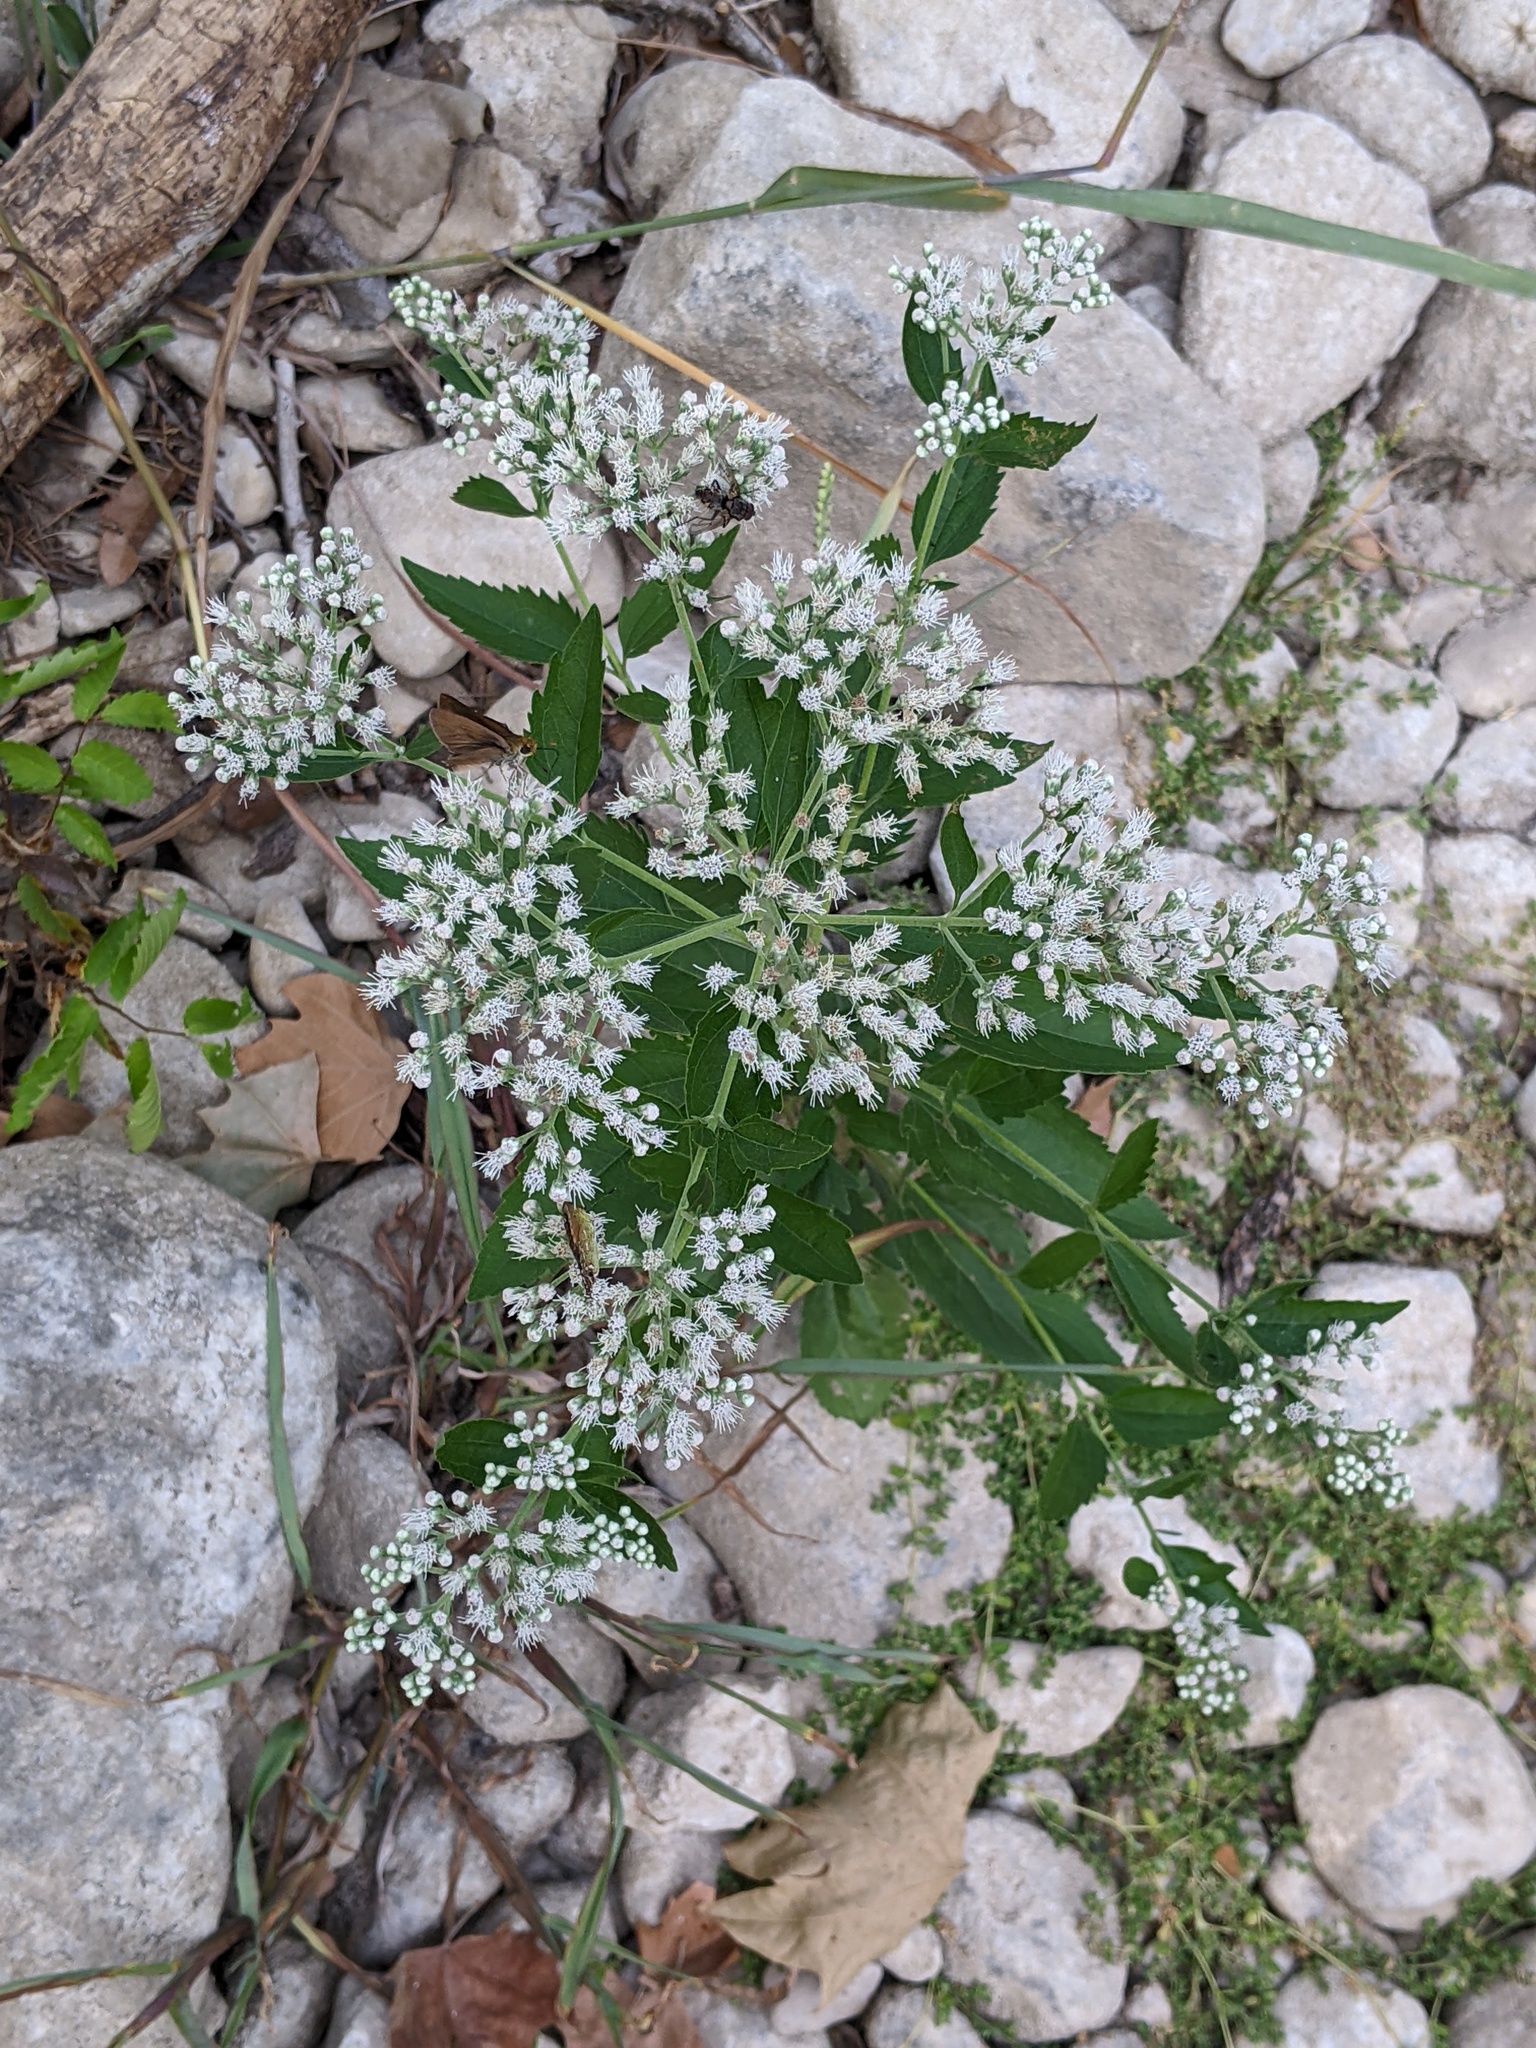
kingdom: Plantae
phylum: Tracheophyta
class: Magnoliopsida
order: Asterales
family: Asteraceae
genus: Eupatorium
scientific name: Eupatorium serotinum
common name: Late boneset
